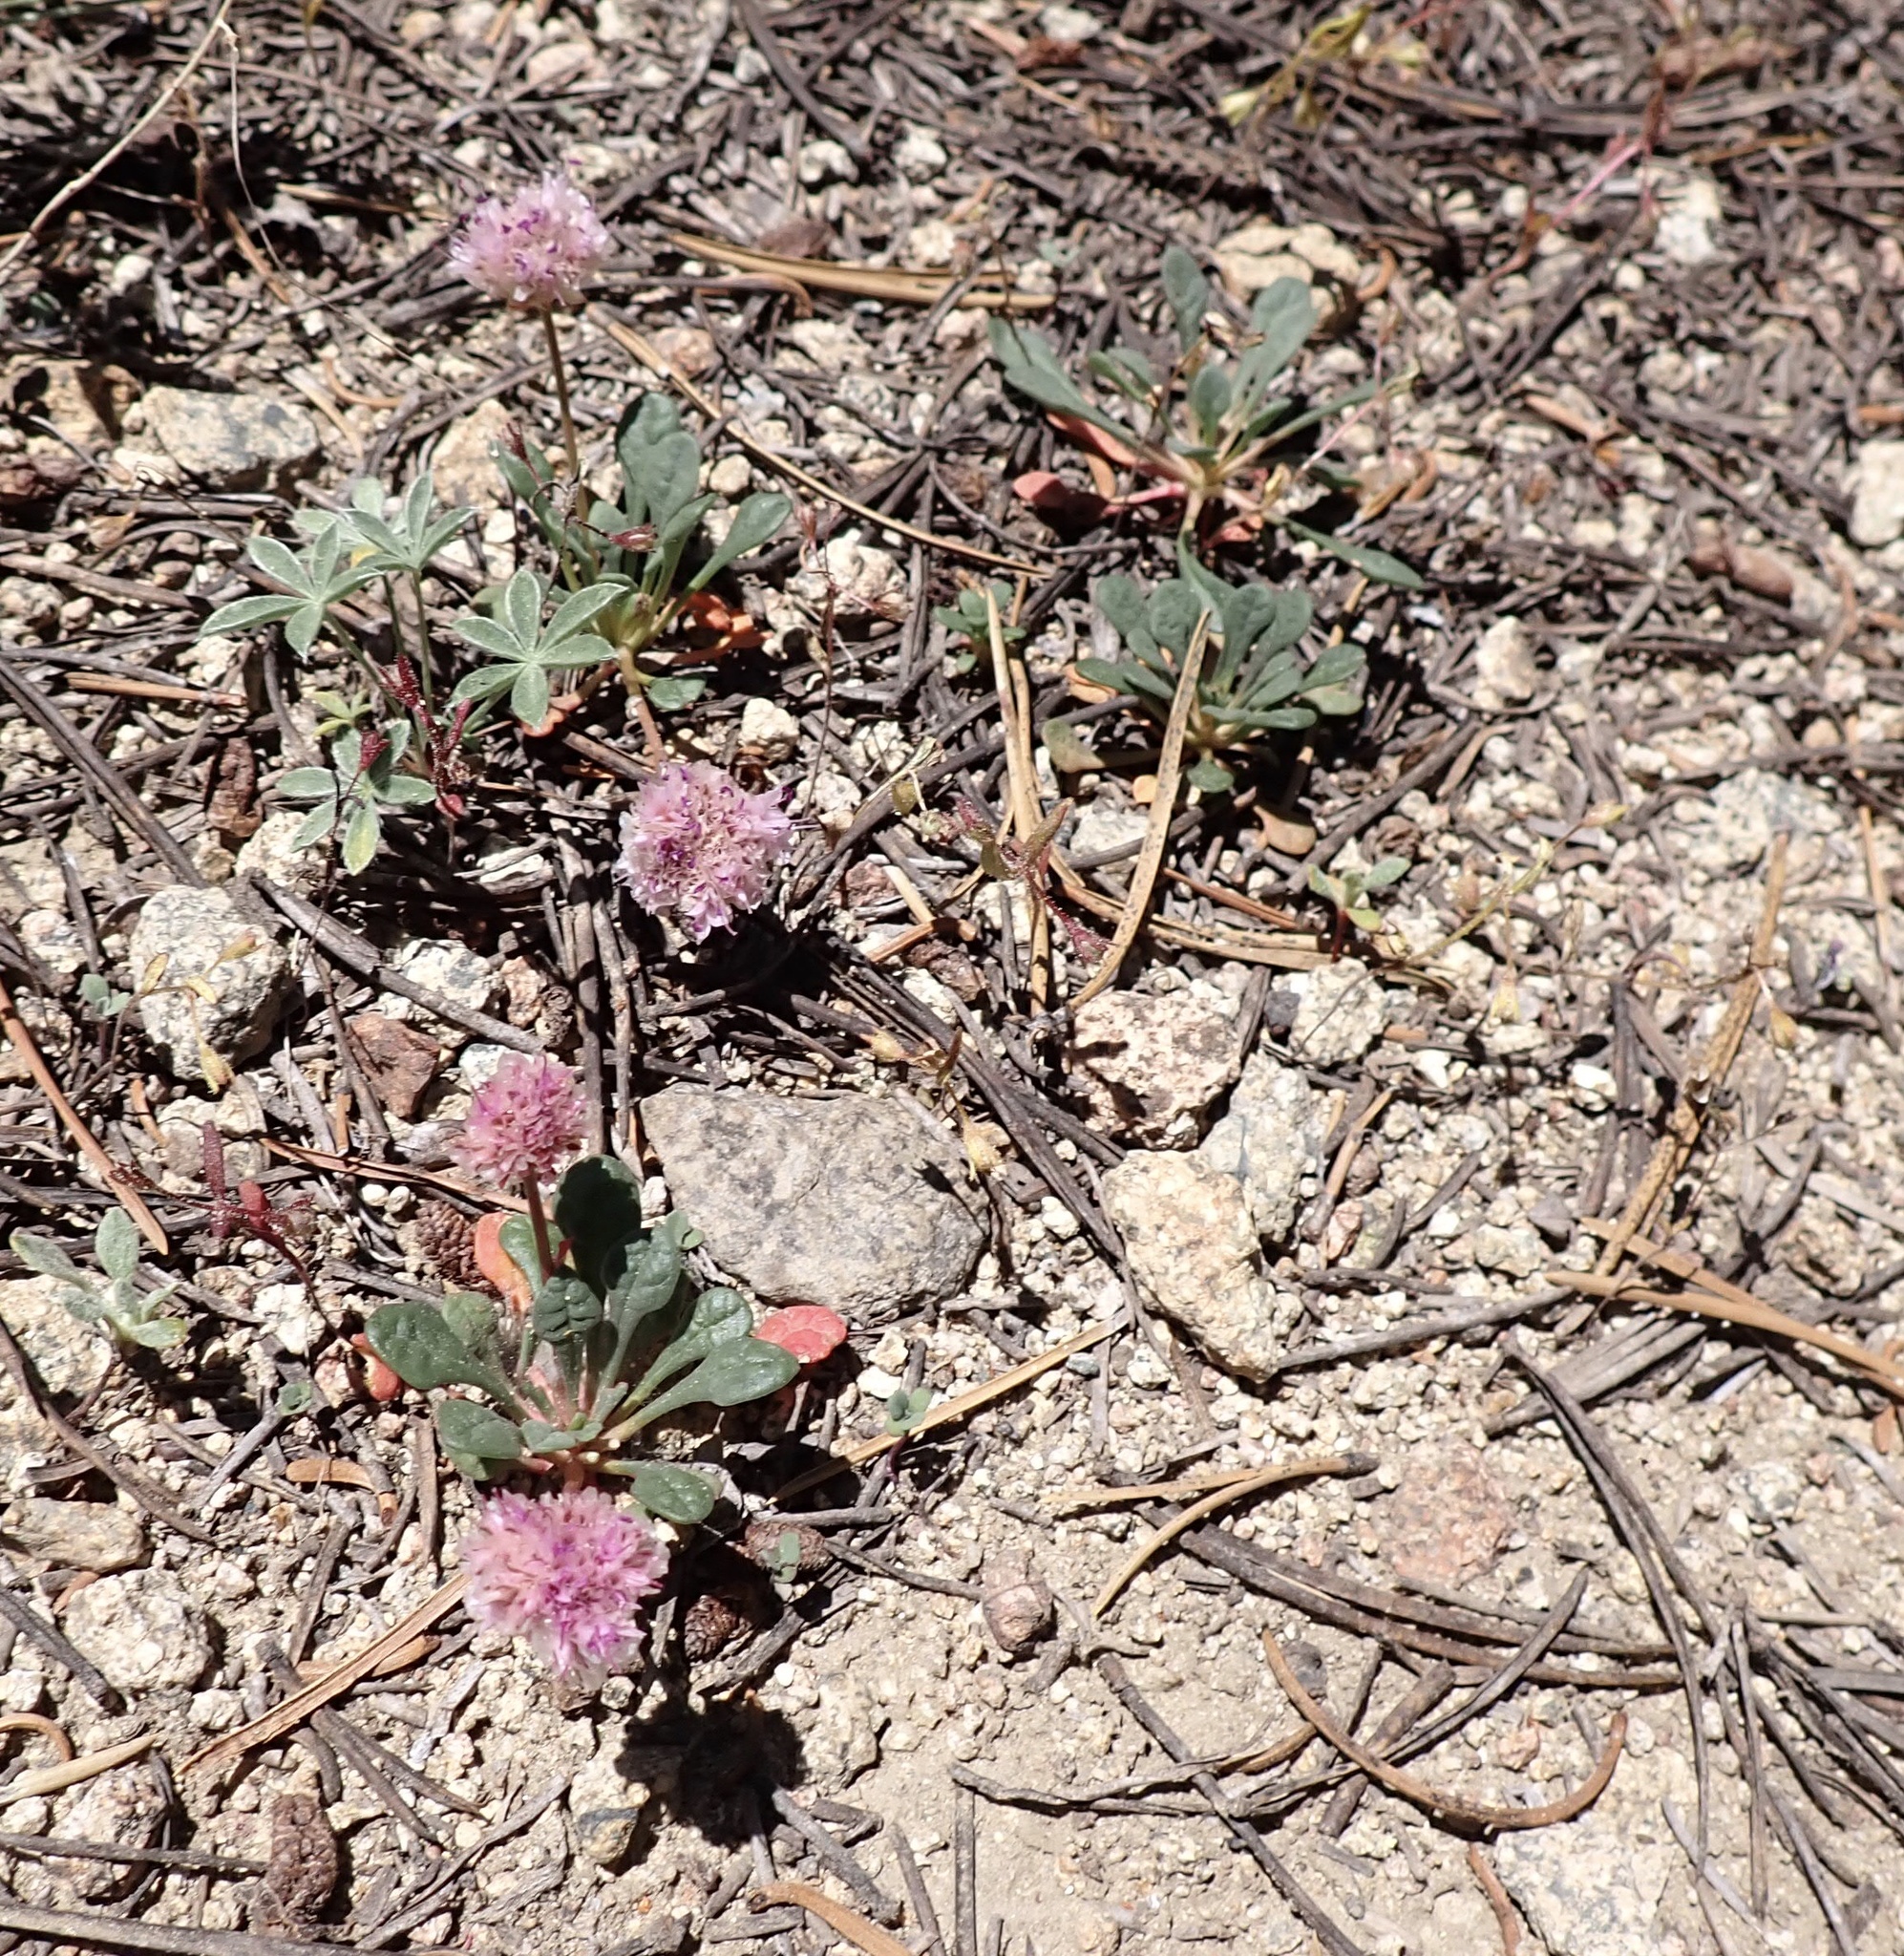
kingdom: Plantae
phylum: Tracheophyta
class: Magnoliopsida
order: Caryophyllales
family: Montiaceae
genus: Calyptridium
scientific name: Calyptridium monospermum
